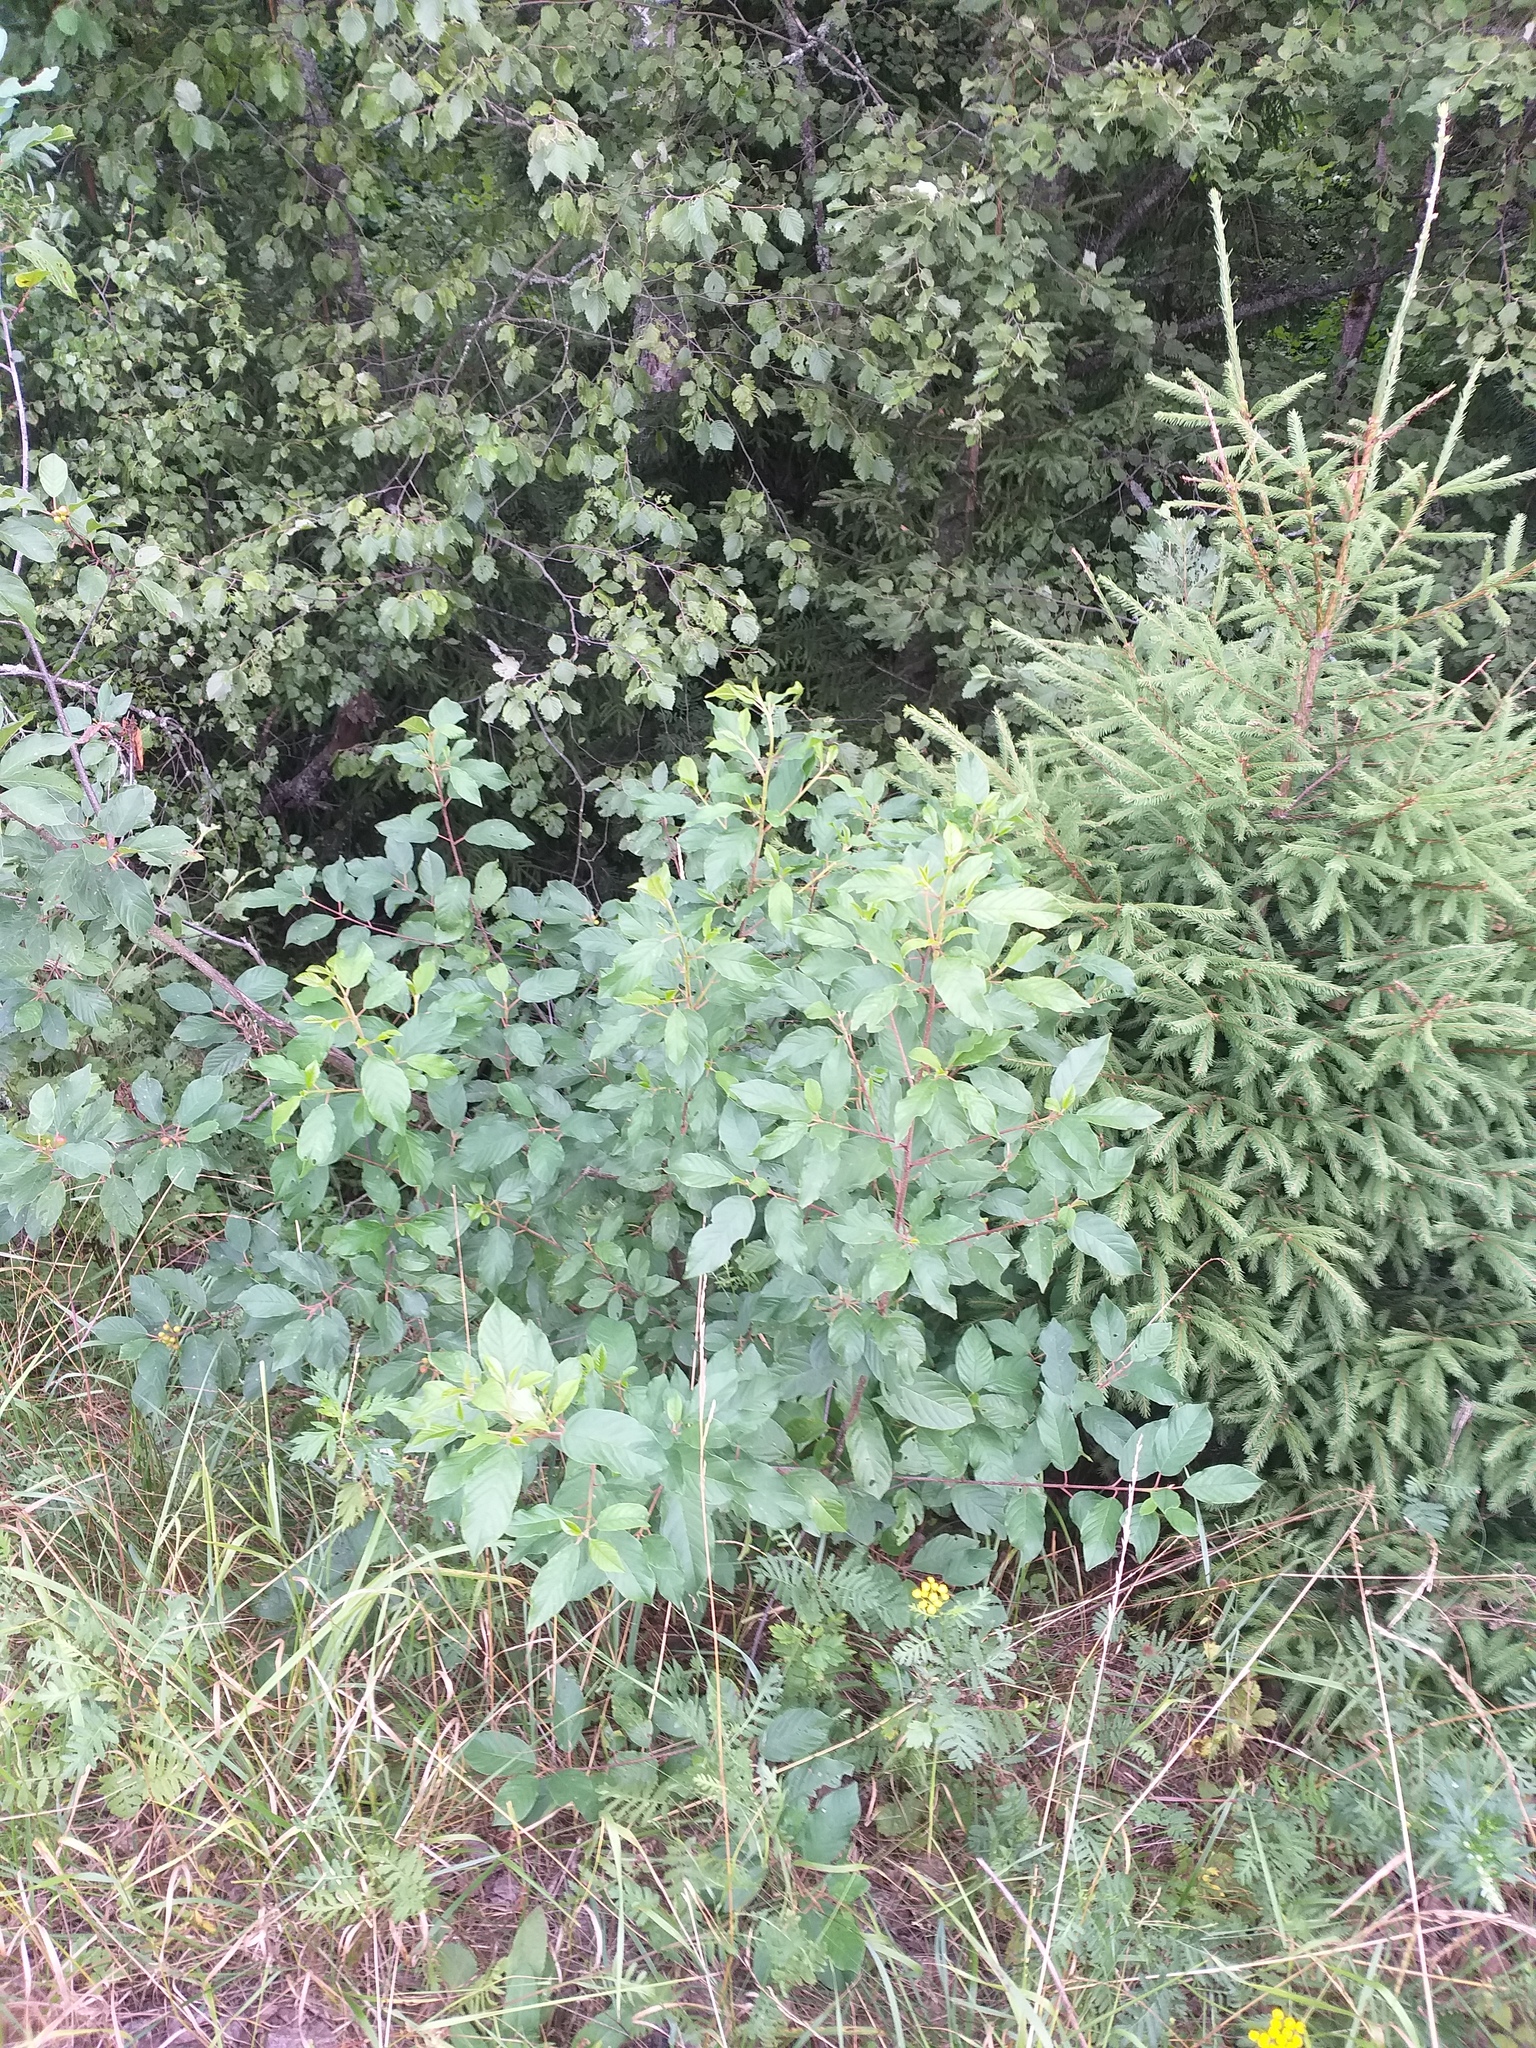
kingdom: Plantae
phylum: Tracheophyta
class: Magnoliopsida
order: Rosales
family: Rhamnaceae
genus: Frangula
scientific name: Frangula alnus
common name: Alder buckthorn
